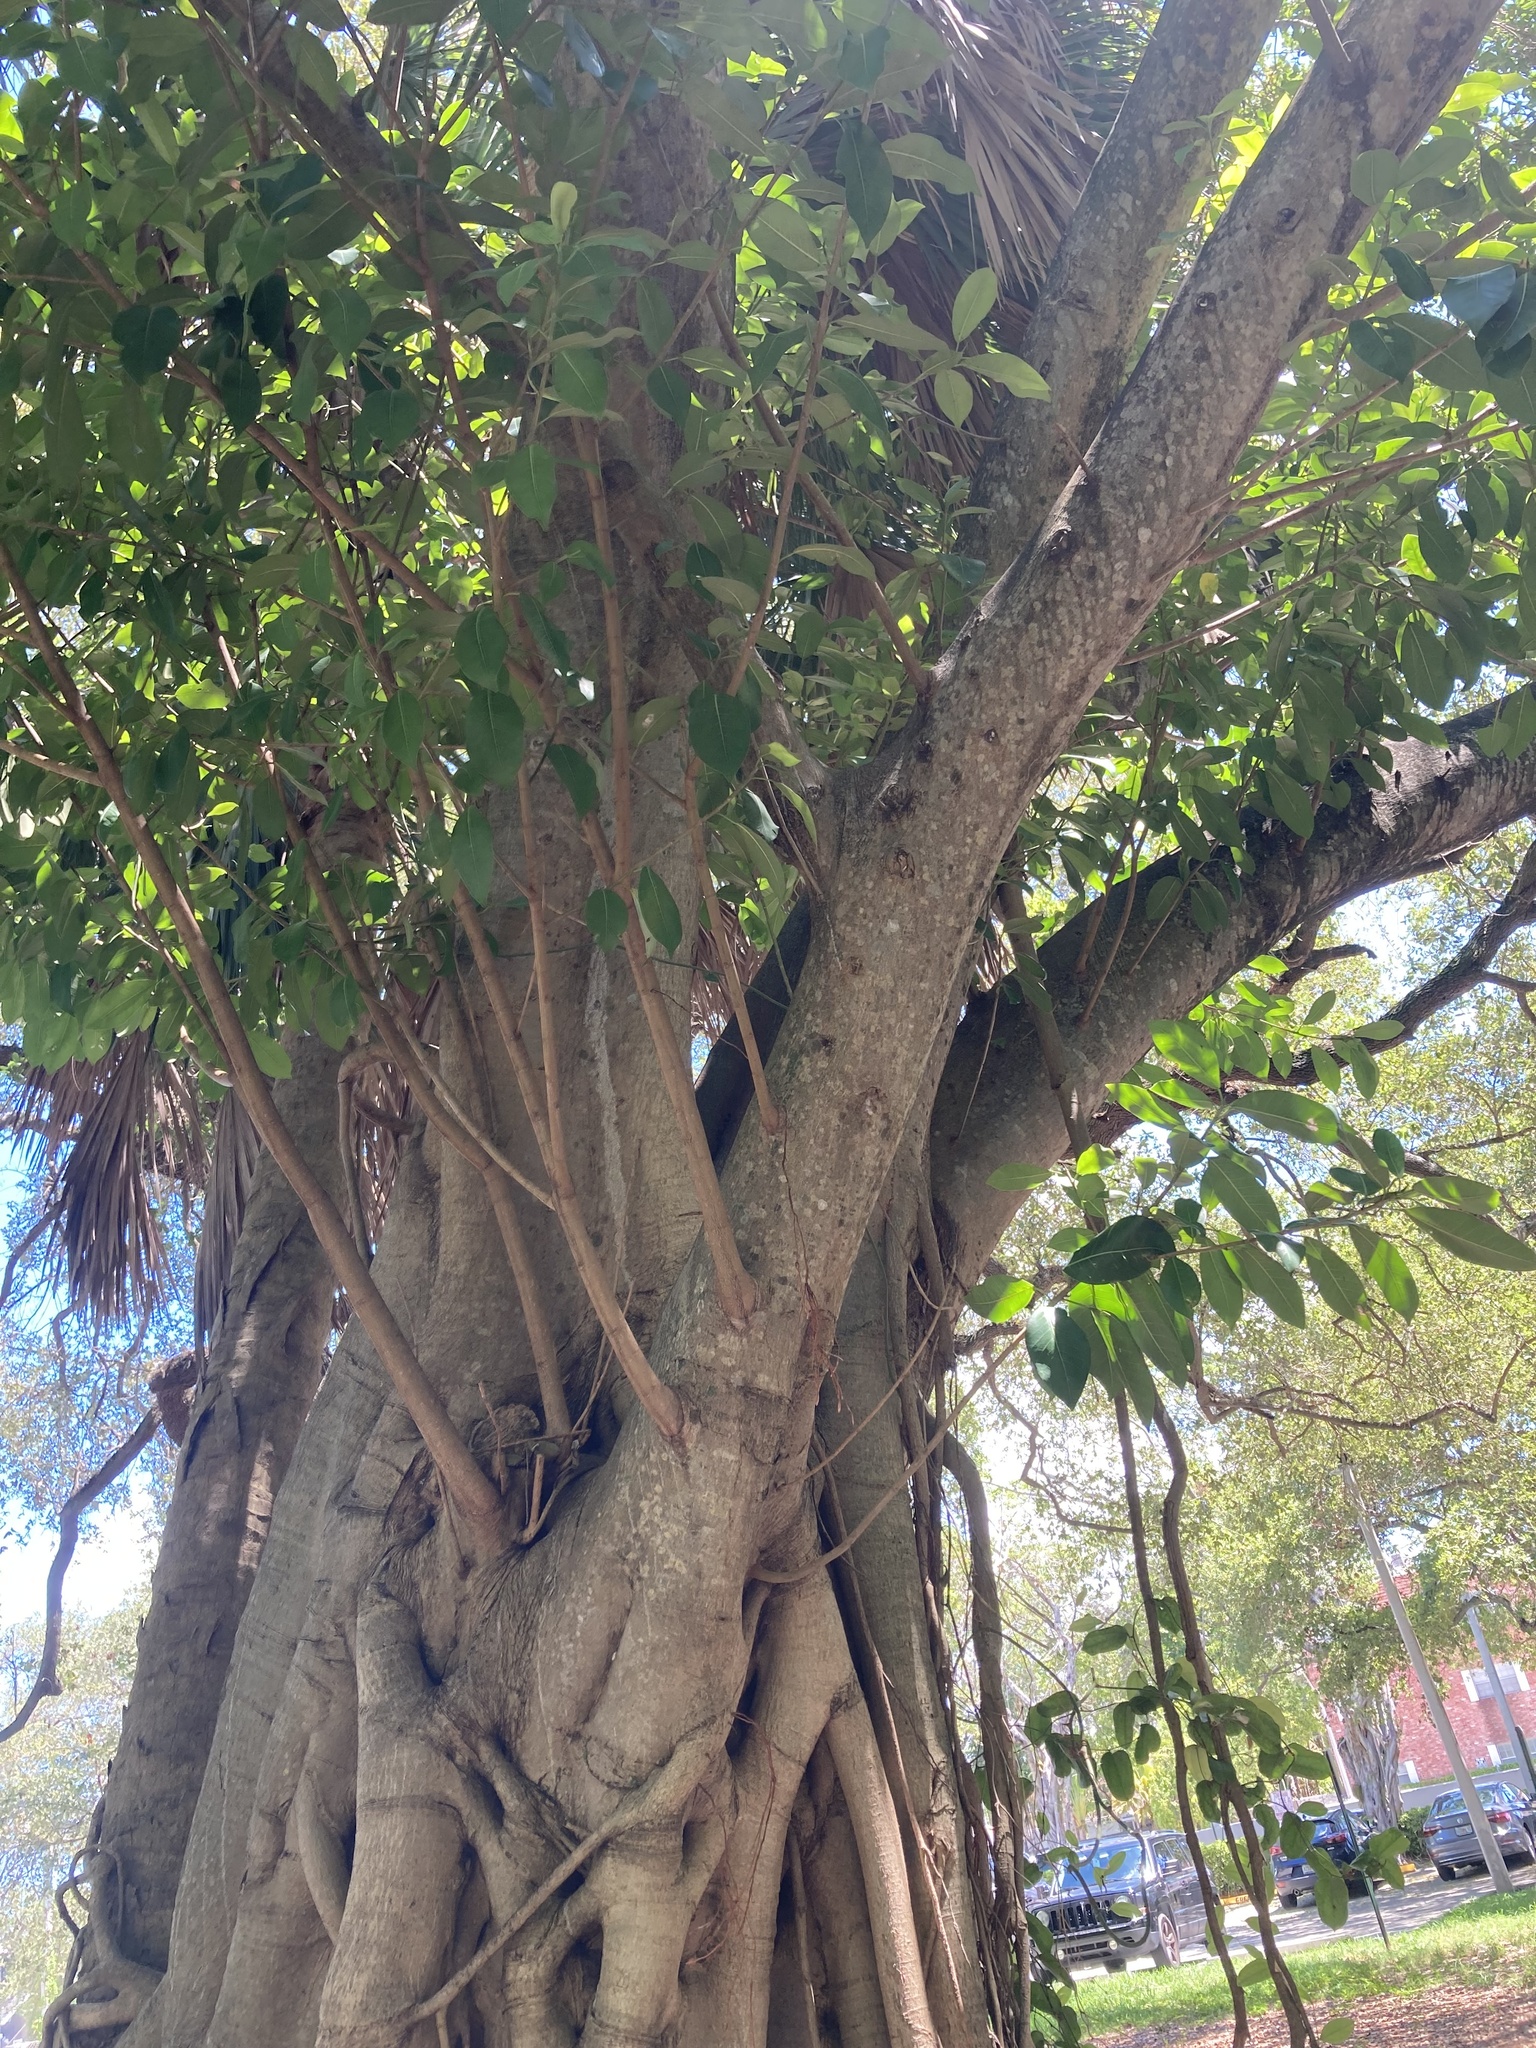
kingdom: Plantae
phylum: Tracheophyta
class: Magnoliopsida
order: Rosales
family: Moraceae
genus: Ficus
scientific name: Ficus aurea
